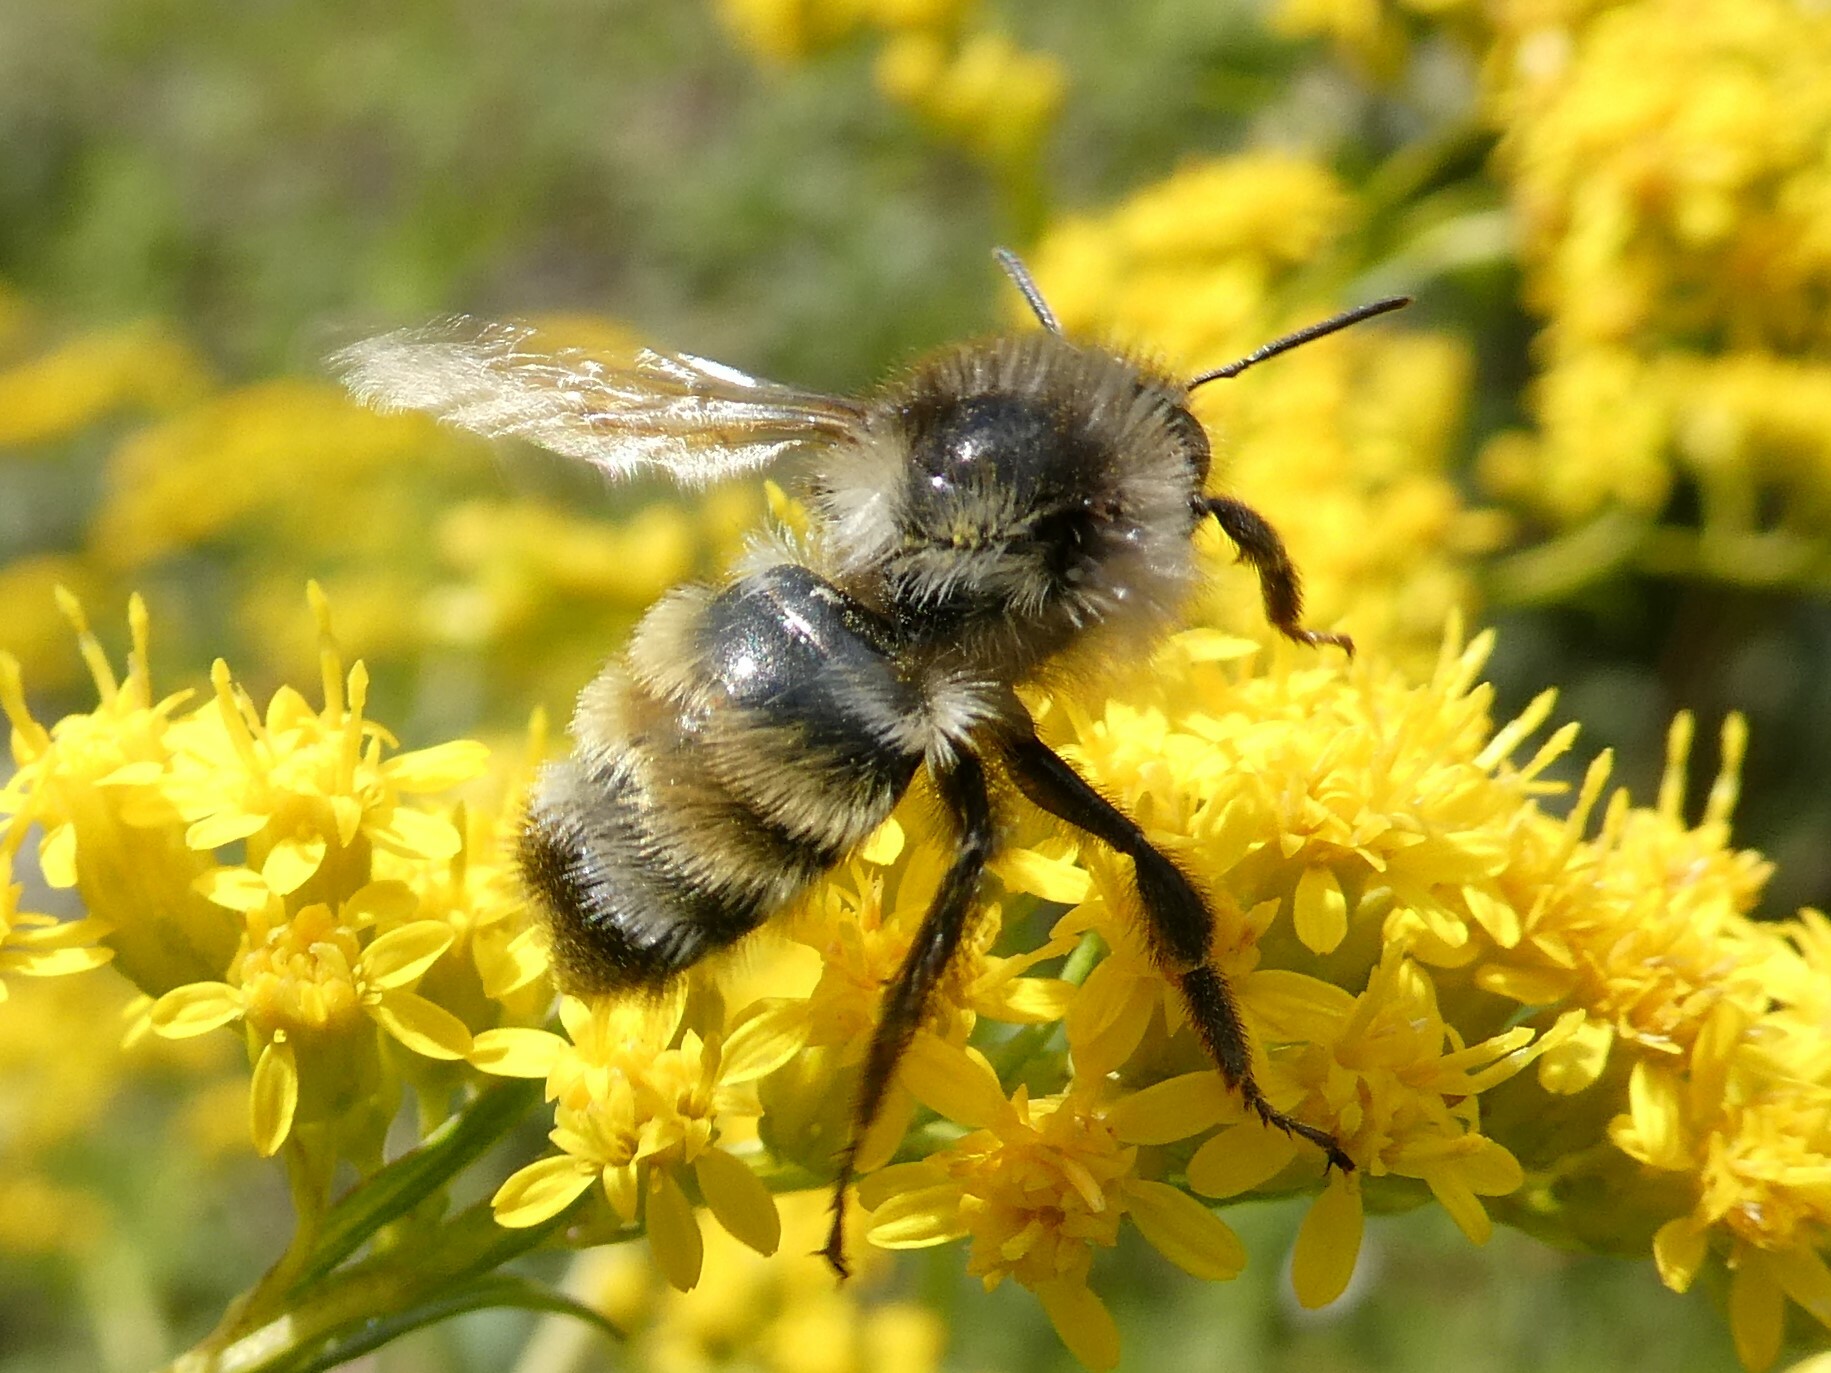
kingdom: Animalia
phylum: Arthropoda
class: Insecta
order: Hymenoptera
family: Apidae
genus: Bombus
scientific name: Bombus ternarius
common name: Tri-colored bumble bee
